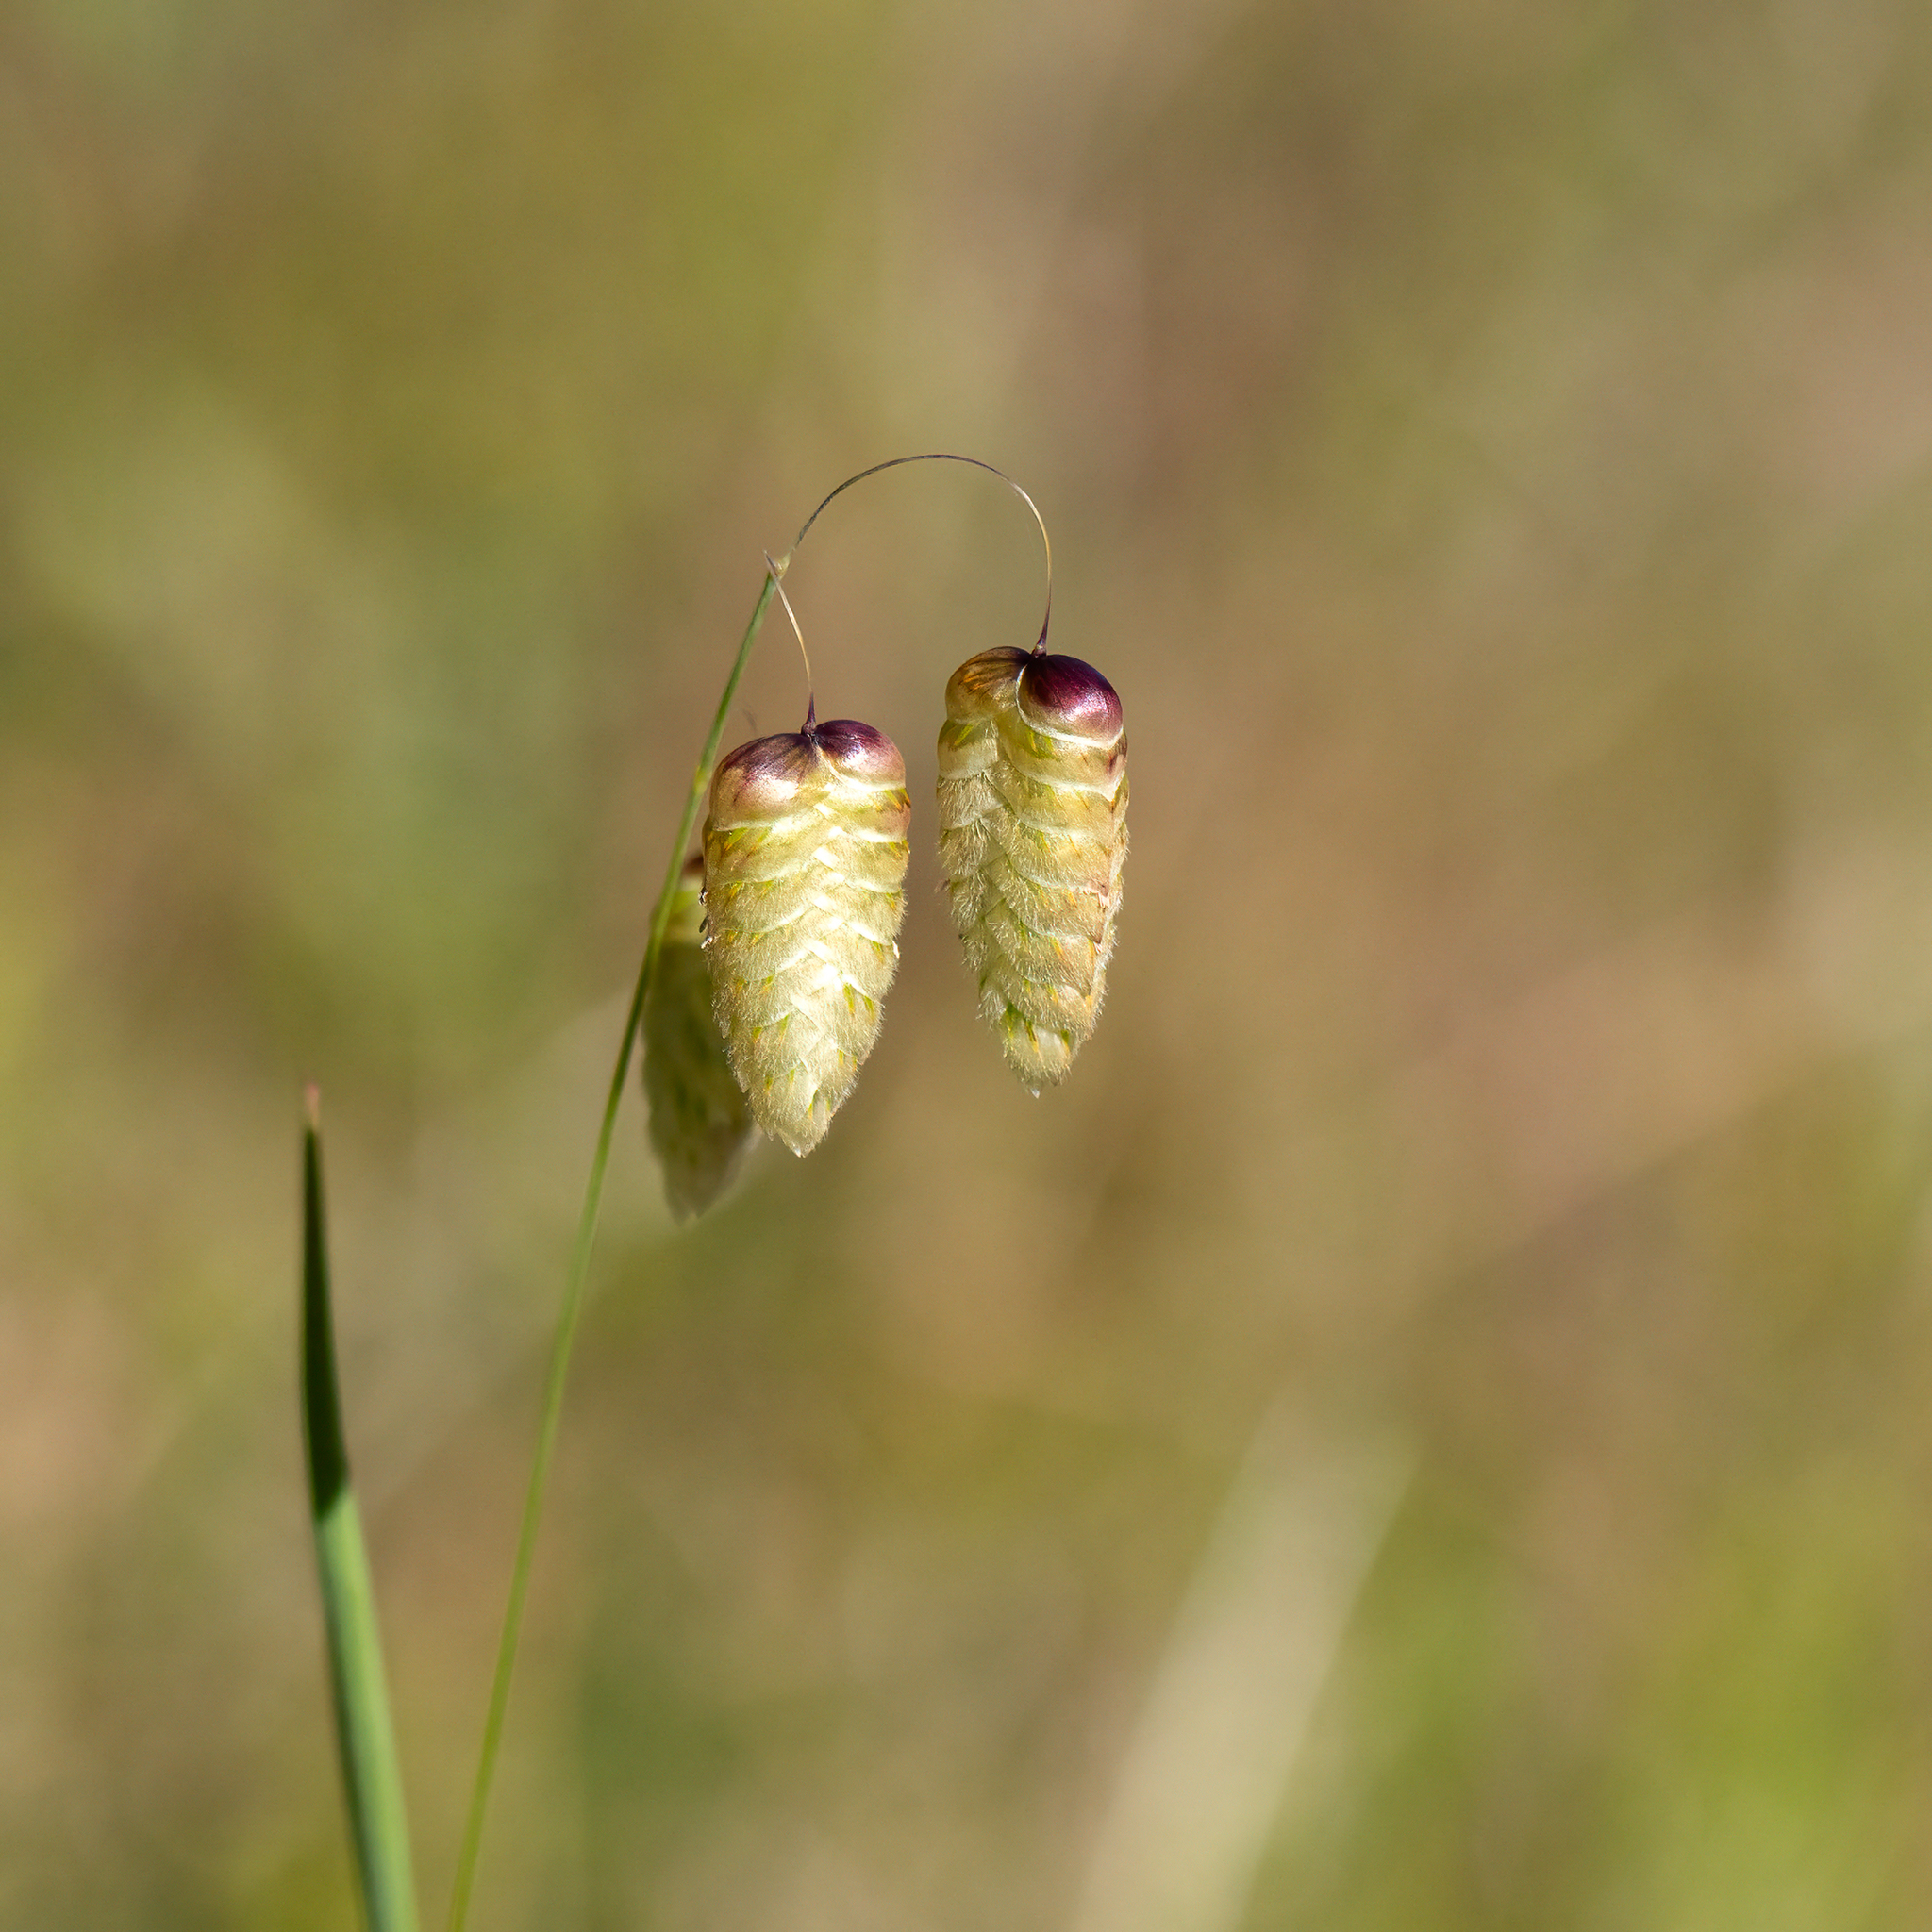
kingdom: Plantae
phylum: Tracheophyta
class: Liliopsida
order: Poales
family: Poaceae
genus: Briza
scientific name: Briza maxima
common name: Big quakinggrass
